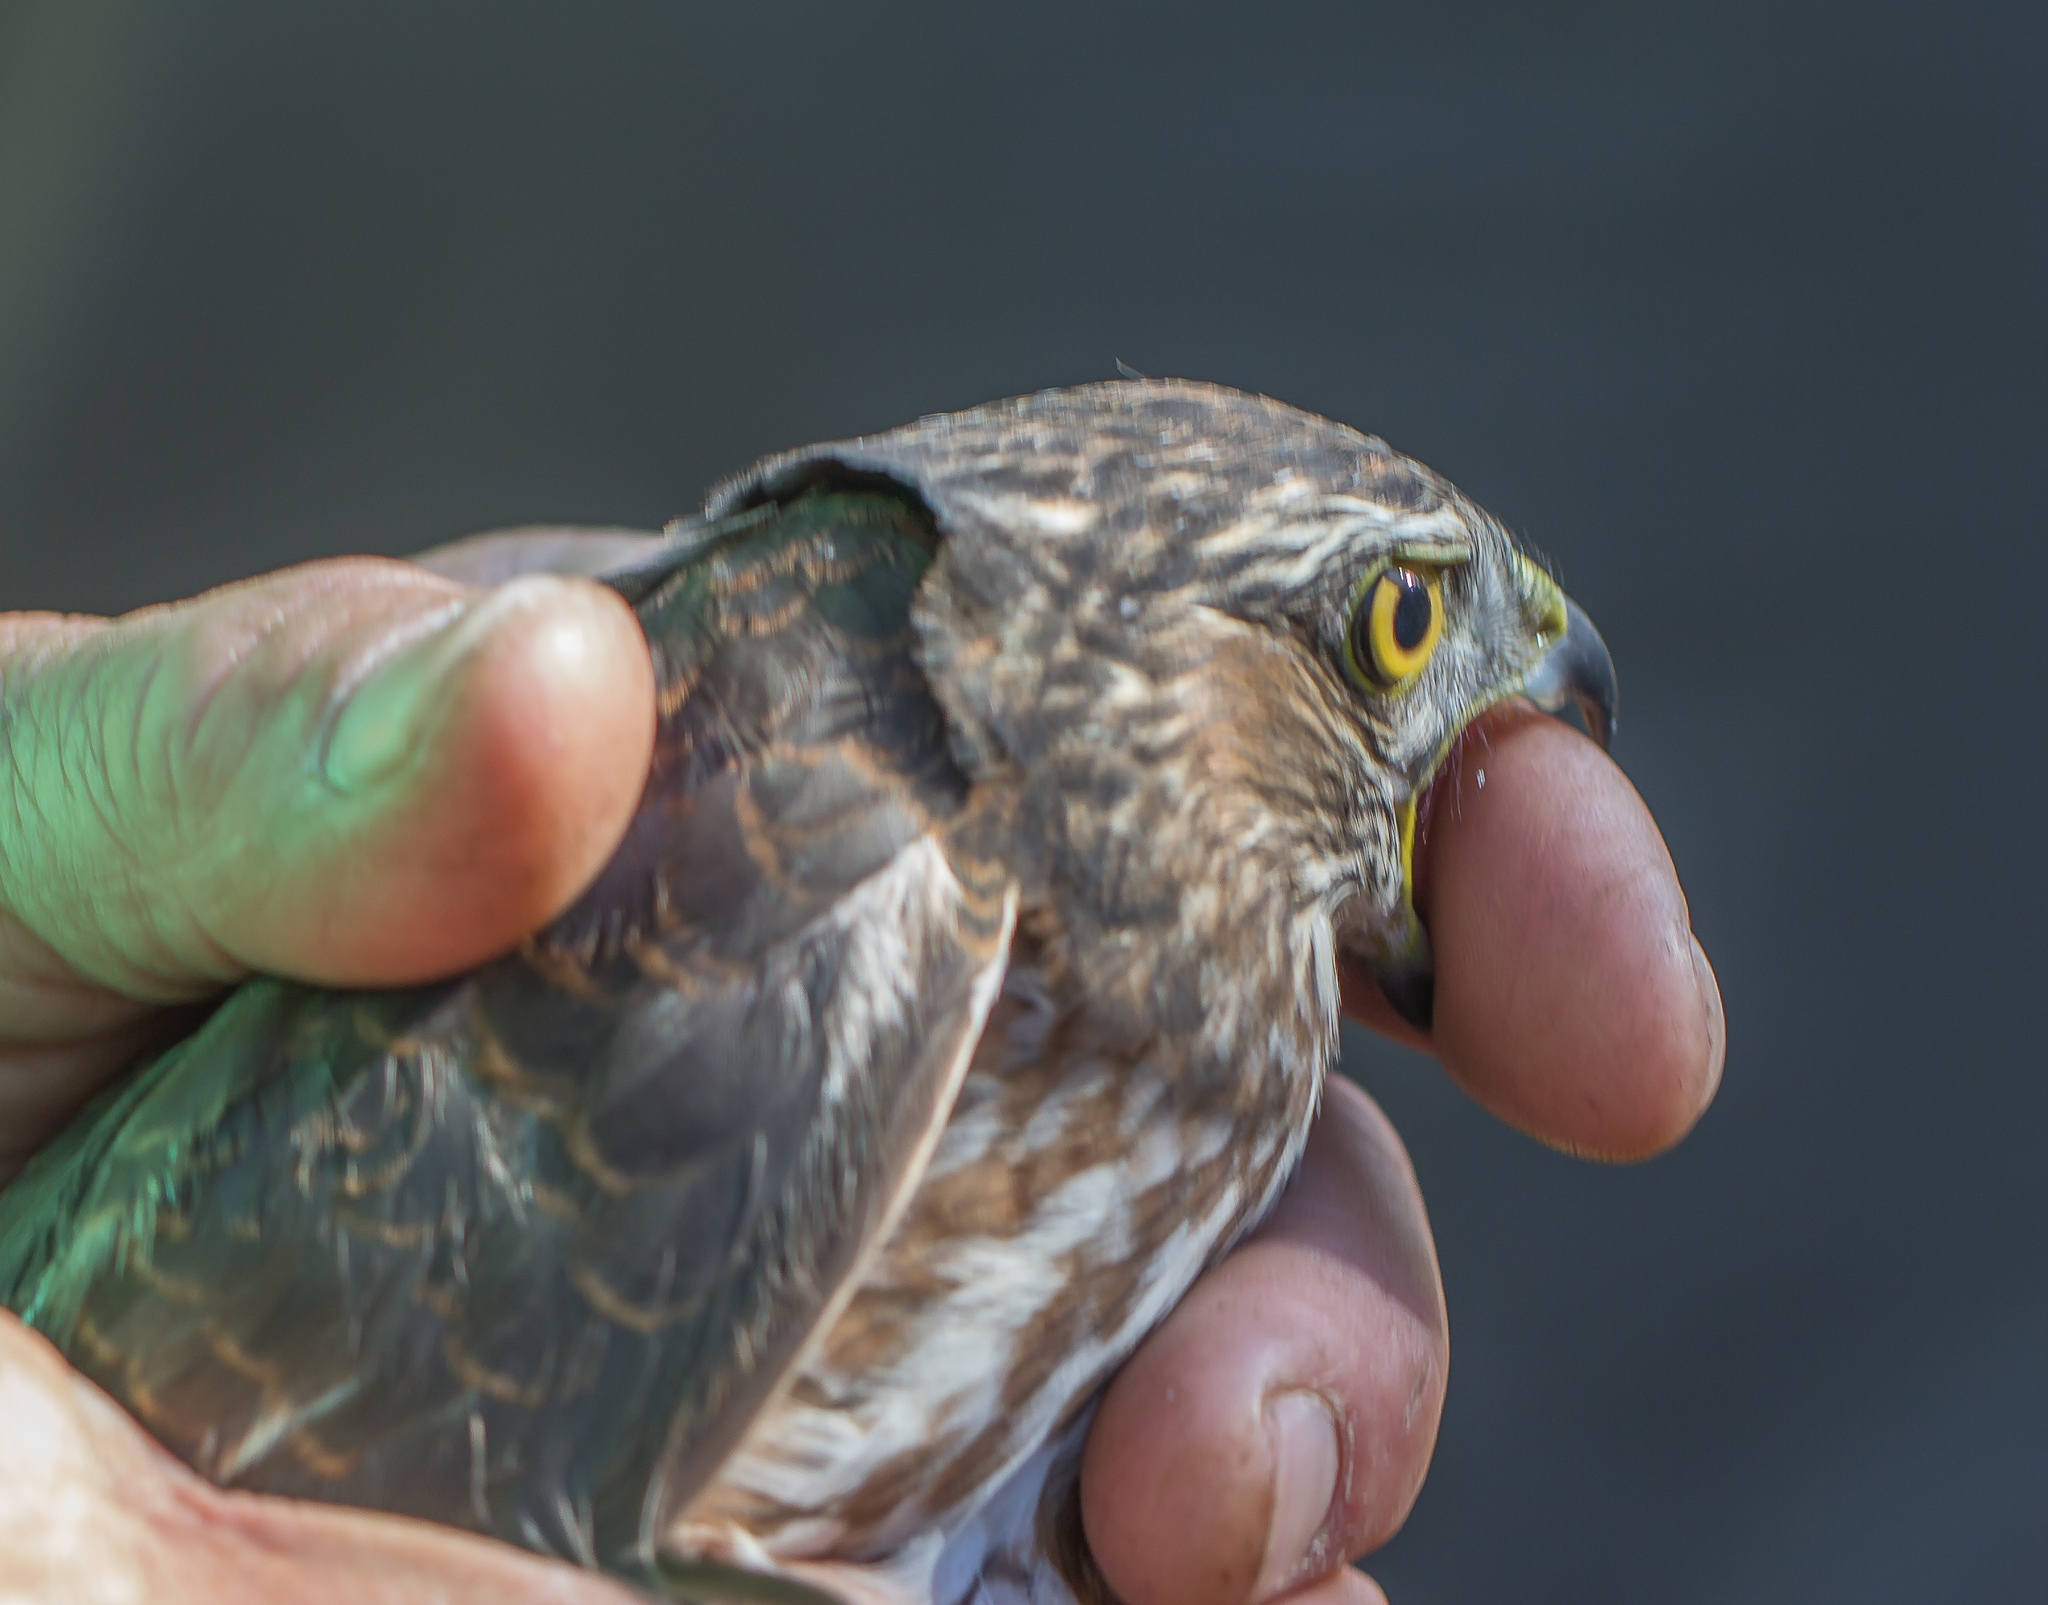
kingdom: Animalia
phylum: Chordata
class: Aves
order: Accipitriformes
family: Accipitridae
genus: Accipiter
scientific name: Accipiter striatus
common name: Sharp-shinned hawk
